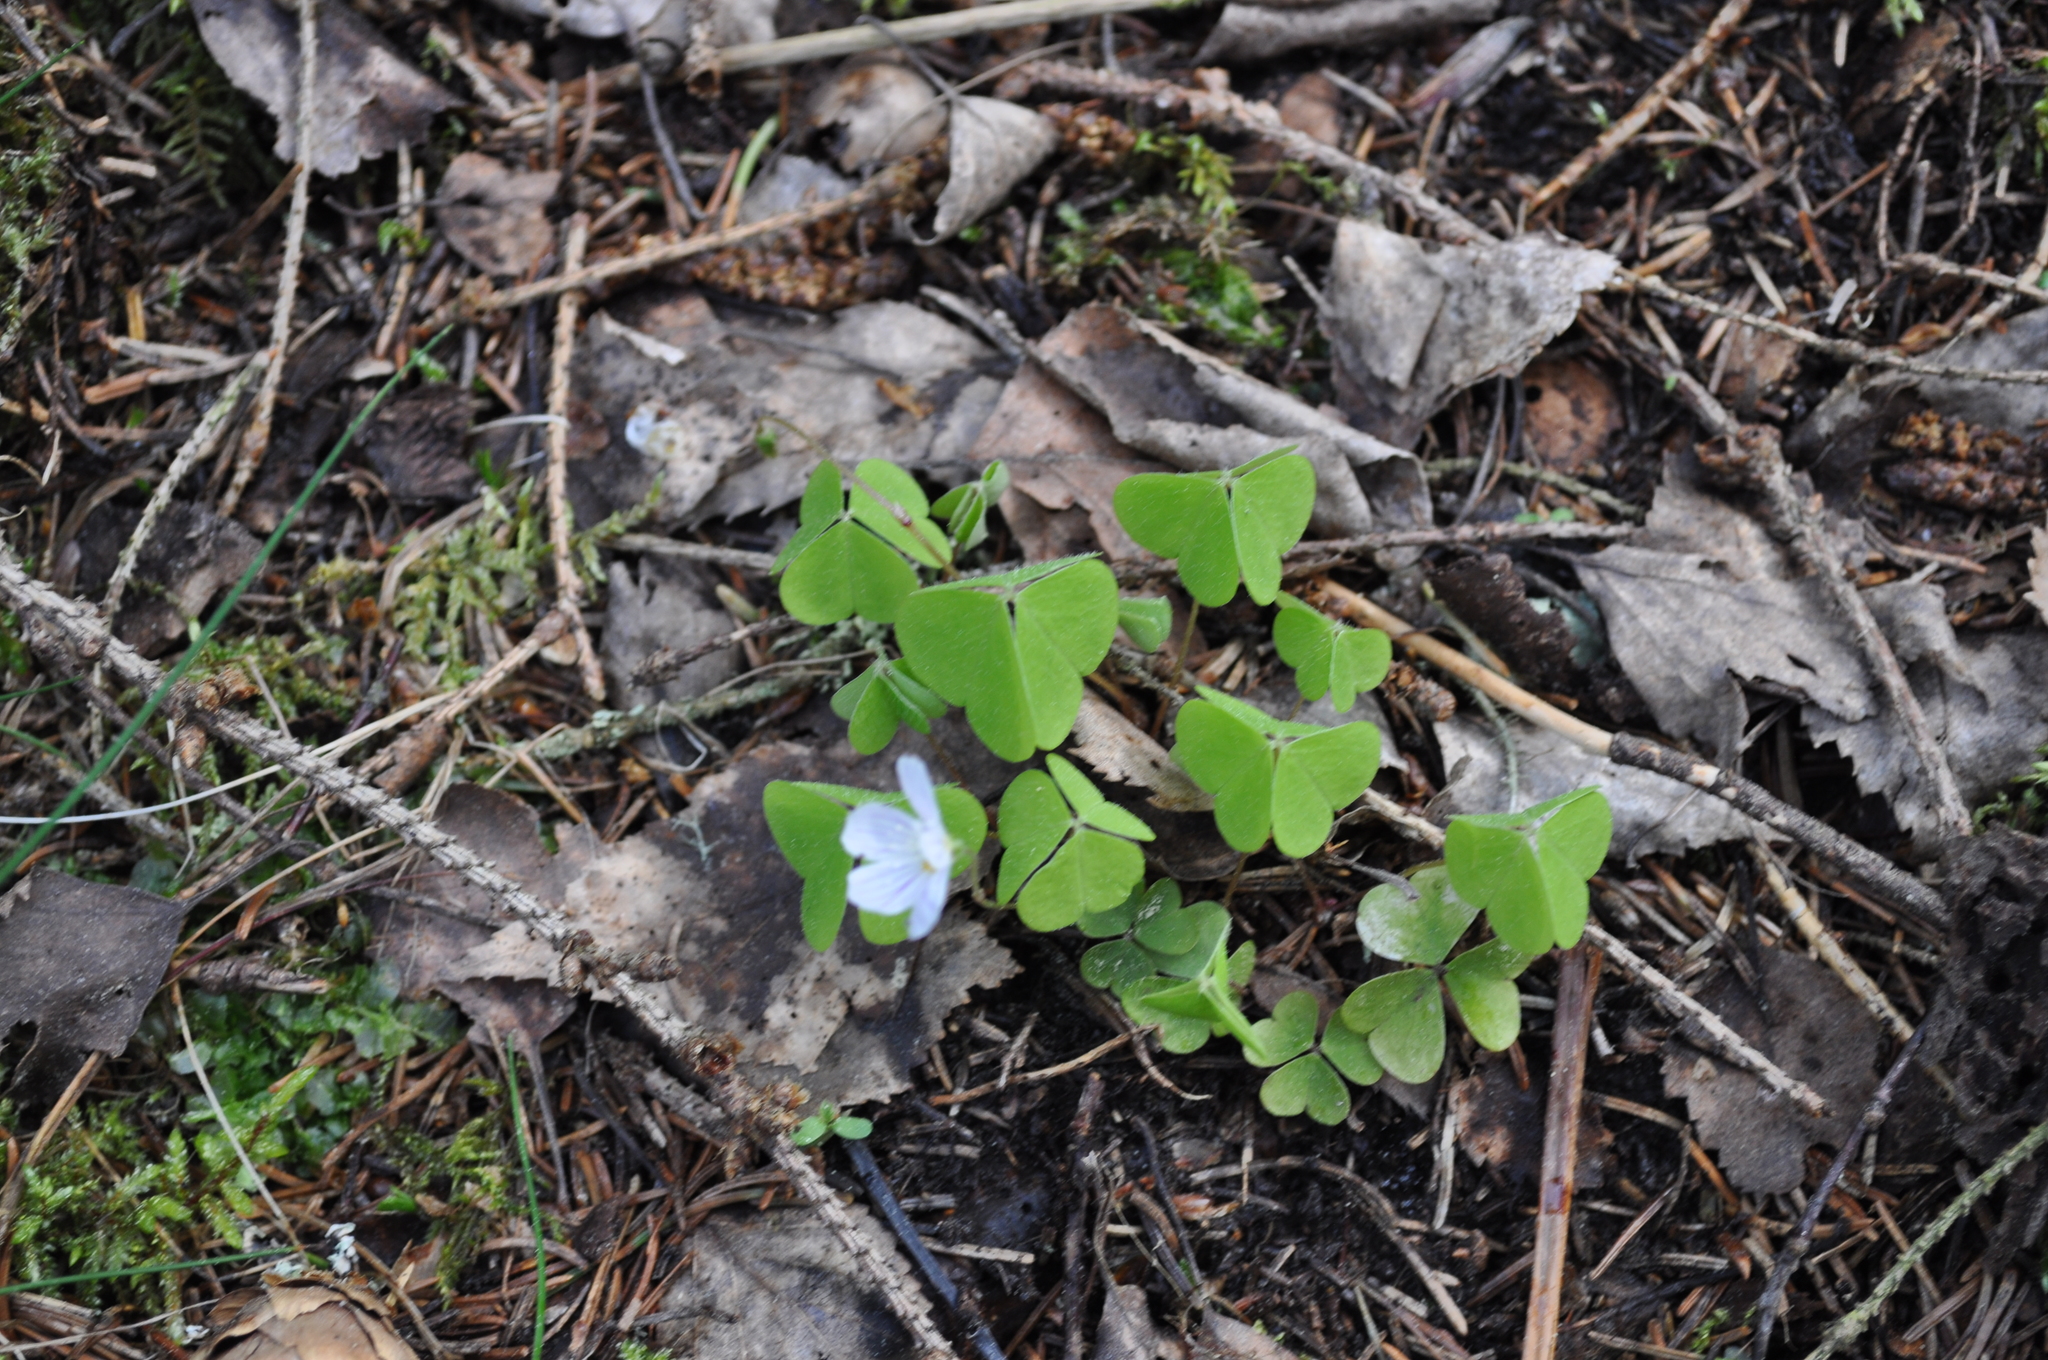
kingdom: Plantae
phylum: Tracheophyta
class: Magnoliopsida
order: Oxalidales
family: Oxalidaceae
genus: Oxalis
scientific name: Oxalis acetosella
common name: Wood-sorrel
